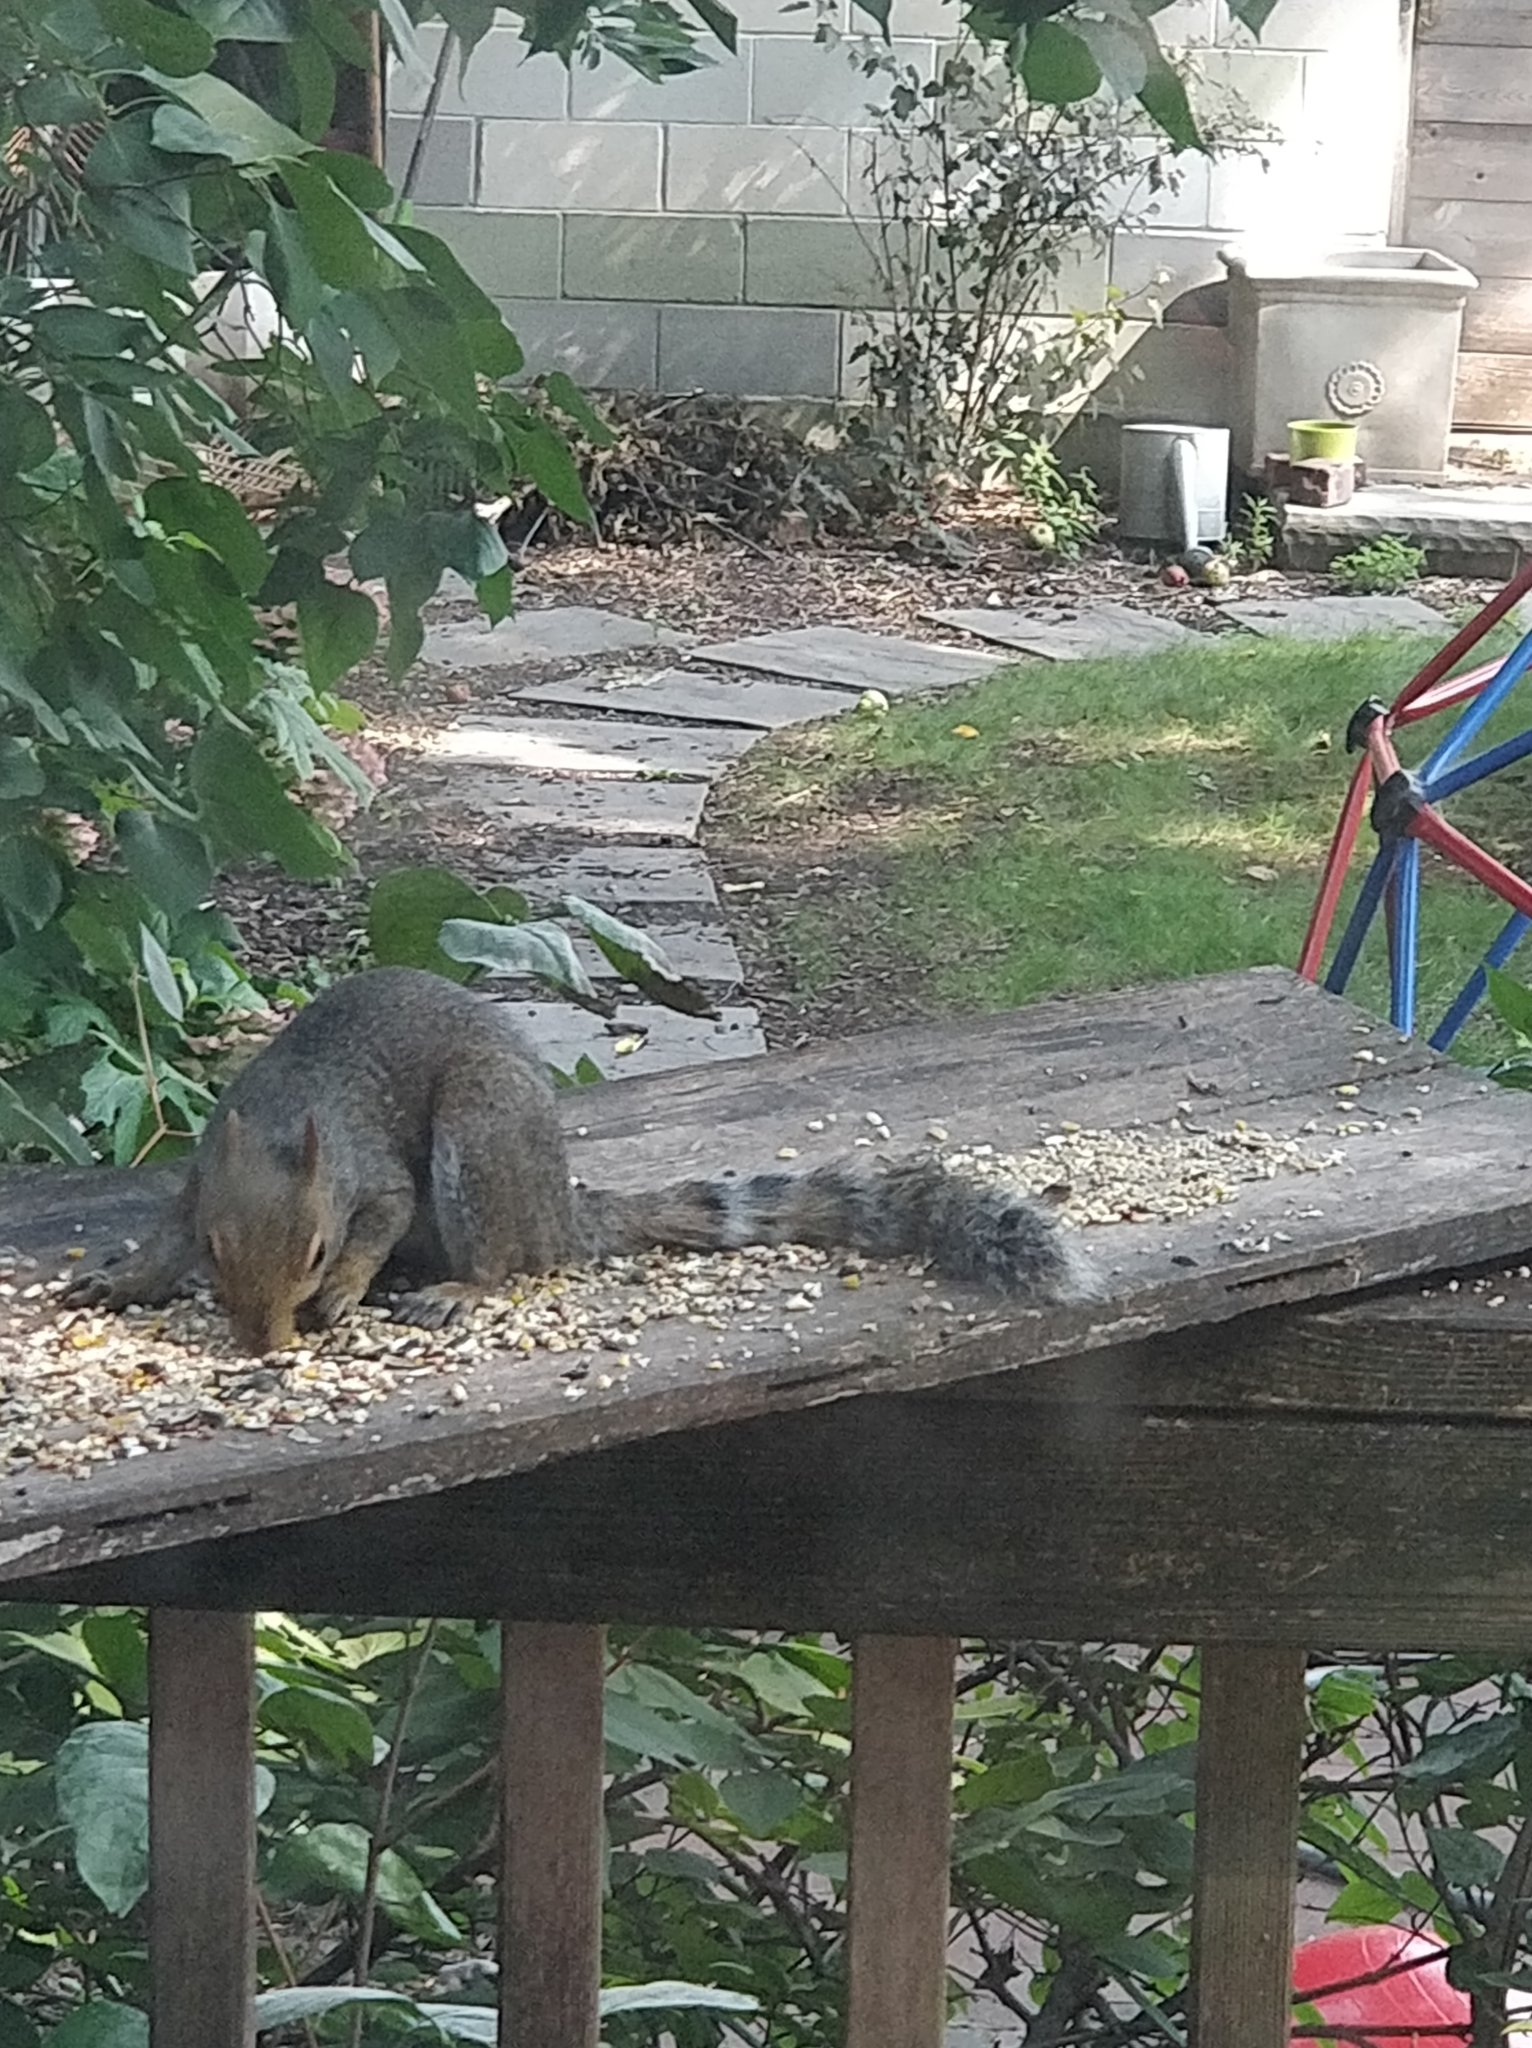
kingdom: Animalia
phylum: Chordata
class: Mammalia
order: Rodentia
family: Sciuridae
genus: Sciurus
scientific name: Sciurus carolinensis
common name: Eastern gray squirrel
